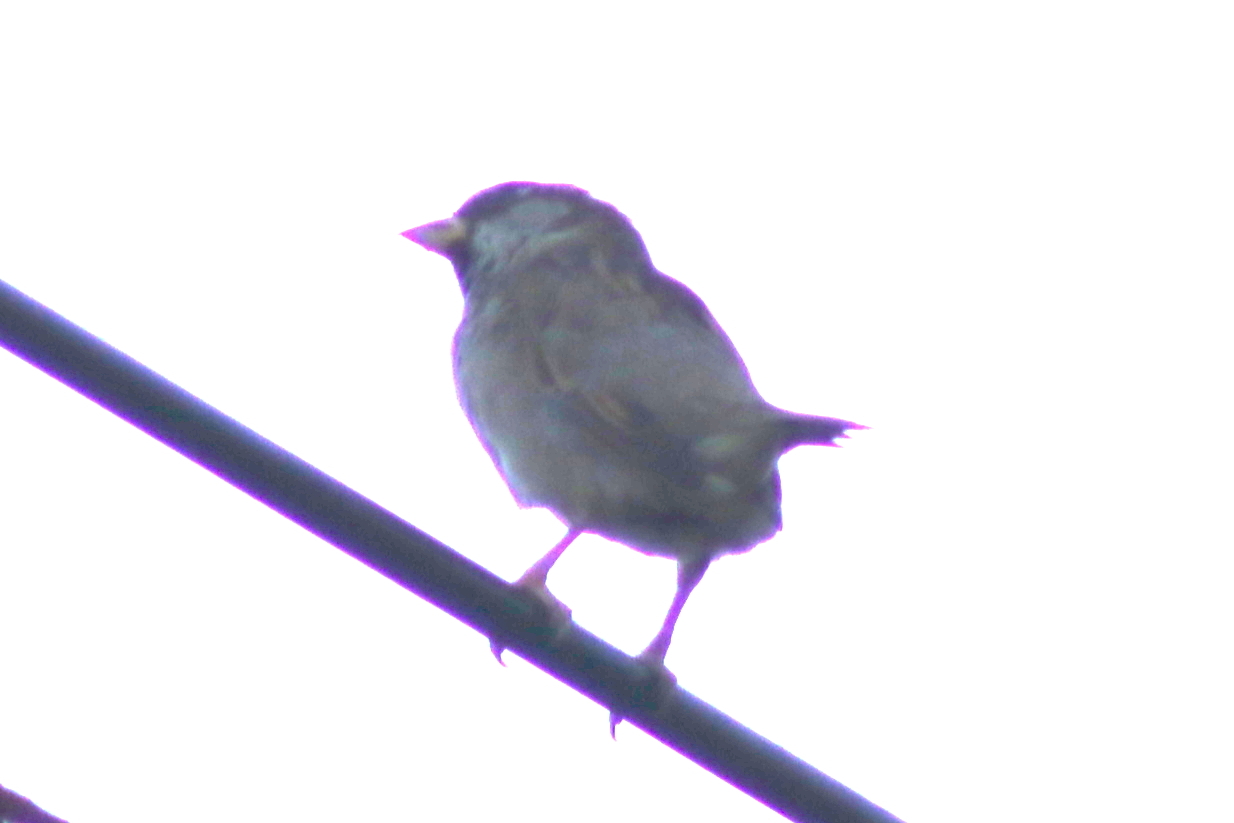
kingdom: Animalia
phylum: Chordata
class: Aves
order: Passeriformes
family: Passeridae
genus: Passer
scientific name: Passer domesticus
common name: House sparrow
